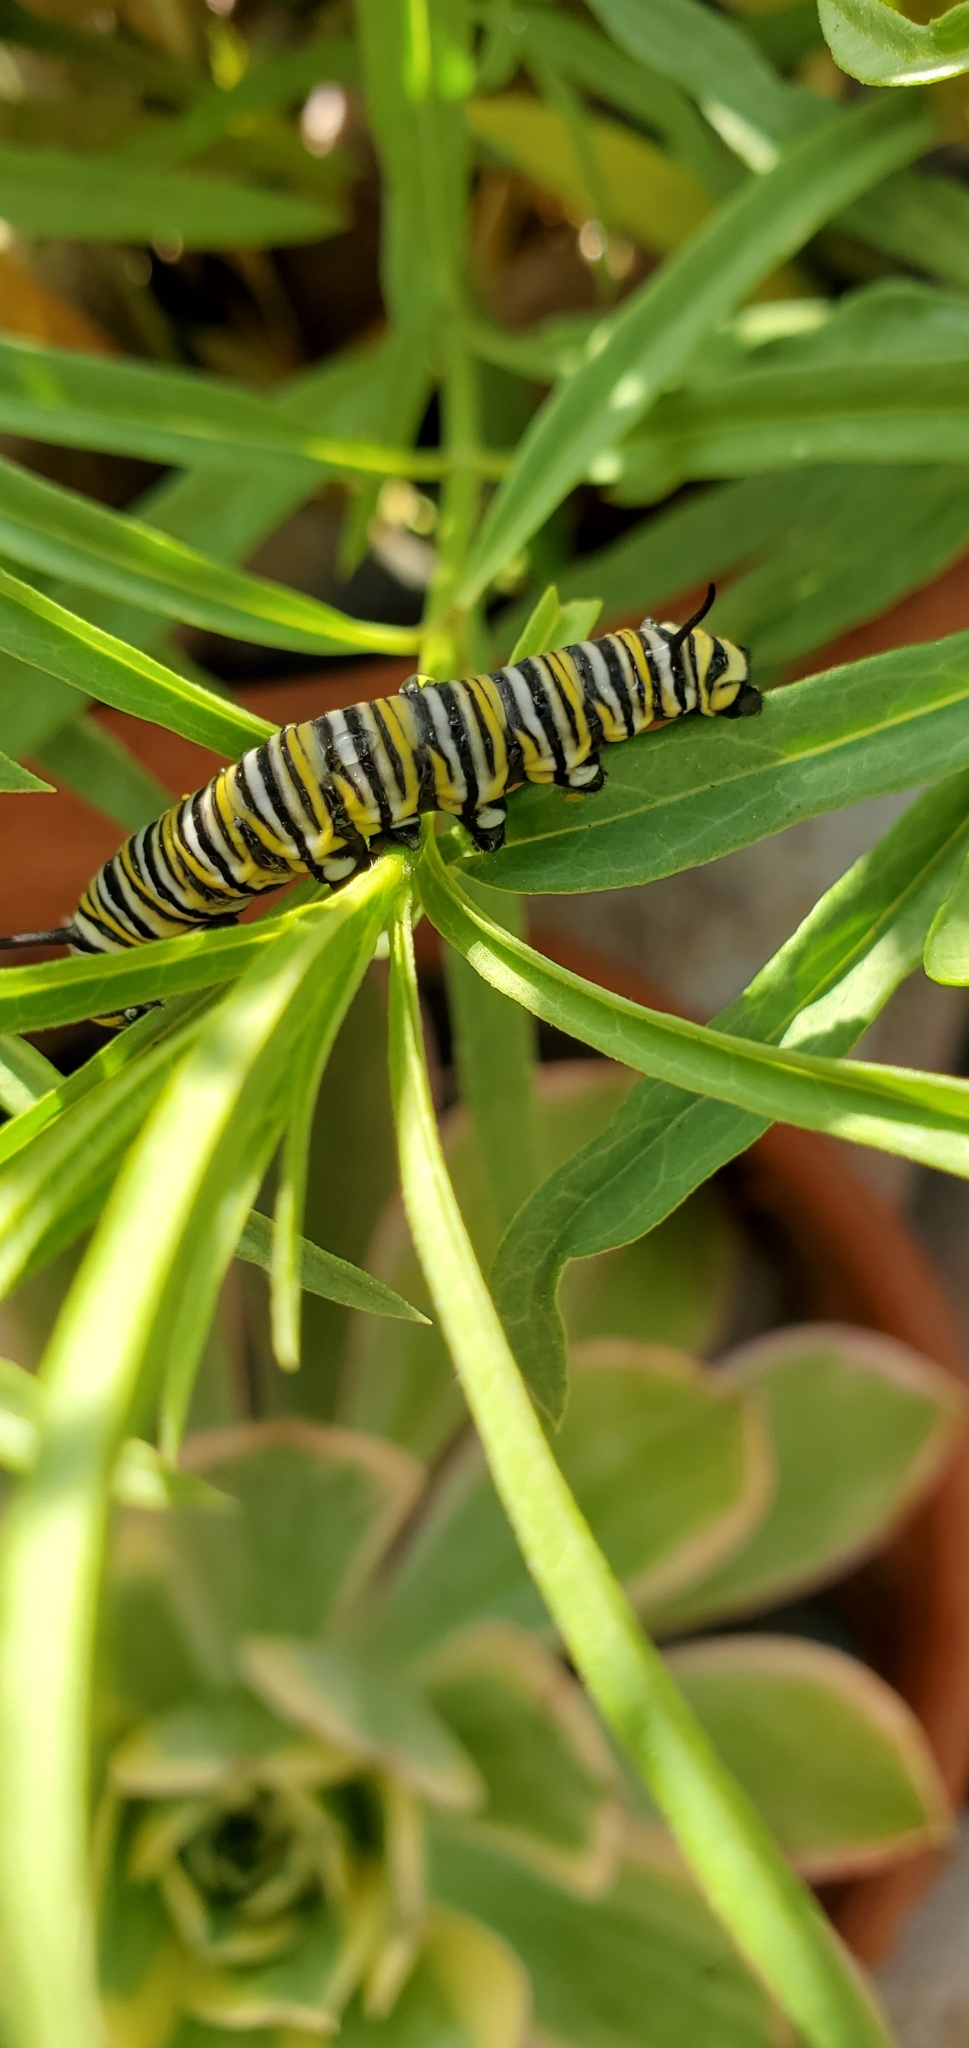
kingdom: Animalia
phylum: Arthropoda
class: Insecta
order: Lepidoptera
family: Nymphalidae
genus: Danaus
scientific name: Danaus plexippus
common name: Monarch
